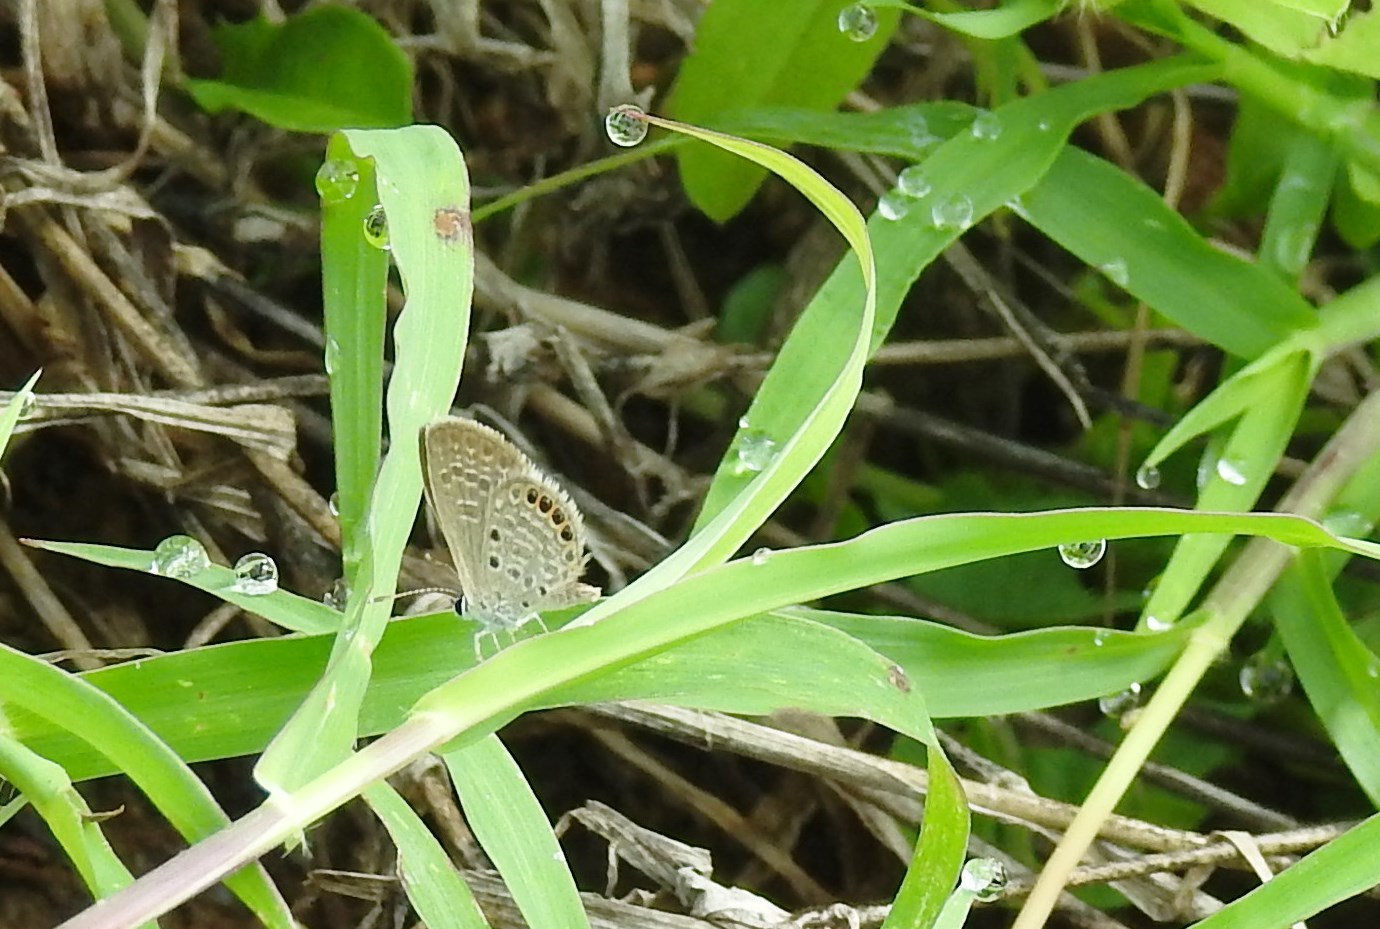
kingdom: Animalia
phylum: Arthropoda
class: Insecta
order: Lepidoptera
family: Lycaenidae
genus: Freyeria
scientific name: Freyeria putli
